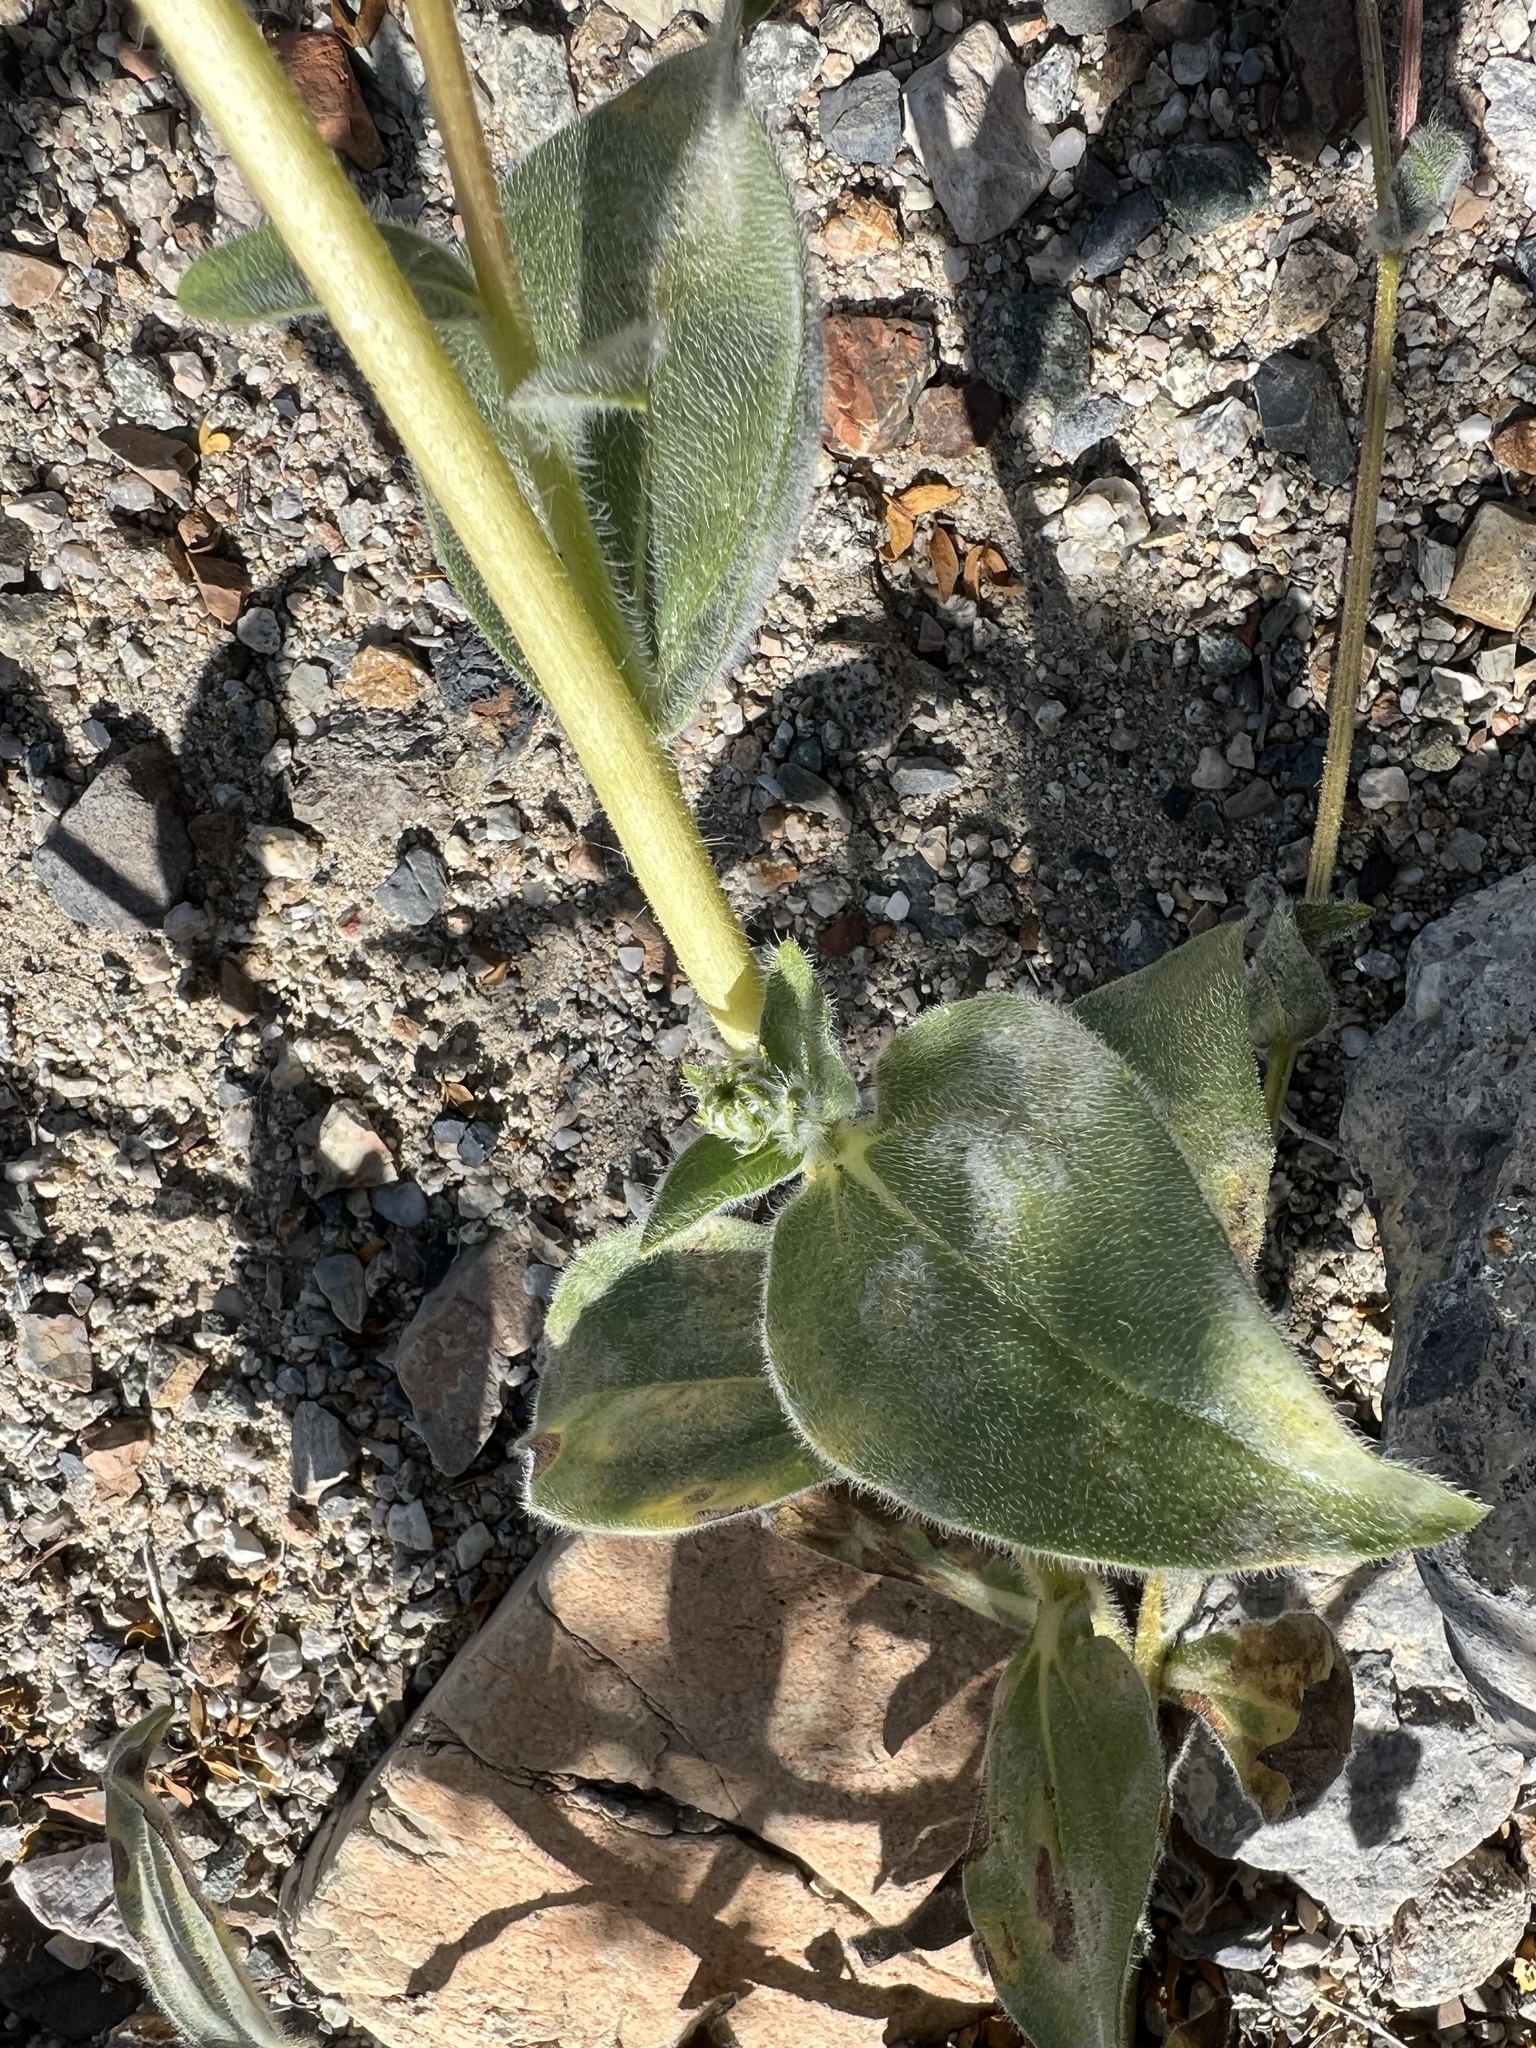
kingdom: Plantae
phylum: Tracheophyta
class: Magnoliopsida
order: Asterales
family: Asteraceae
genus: Geraea
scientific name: Geraea canescens
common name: Desert-gold
